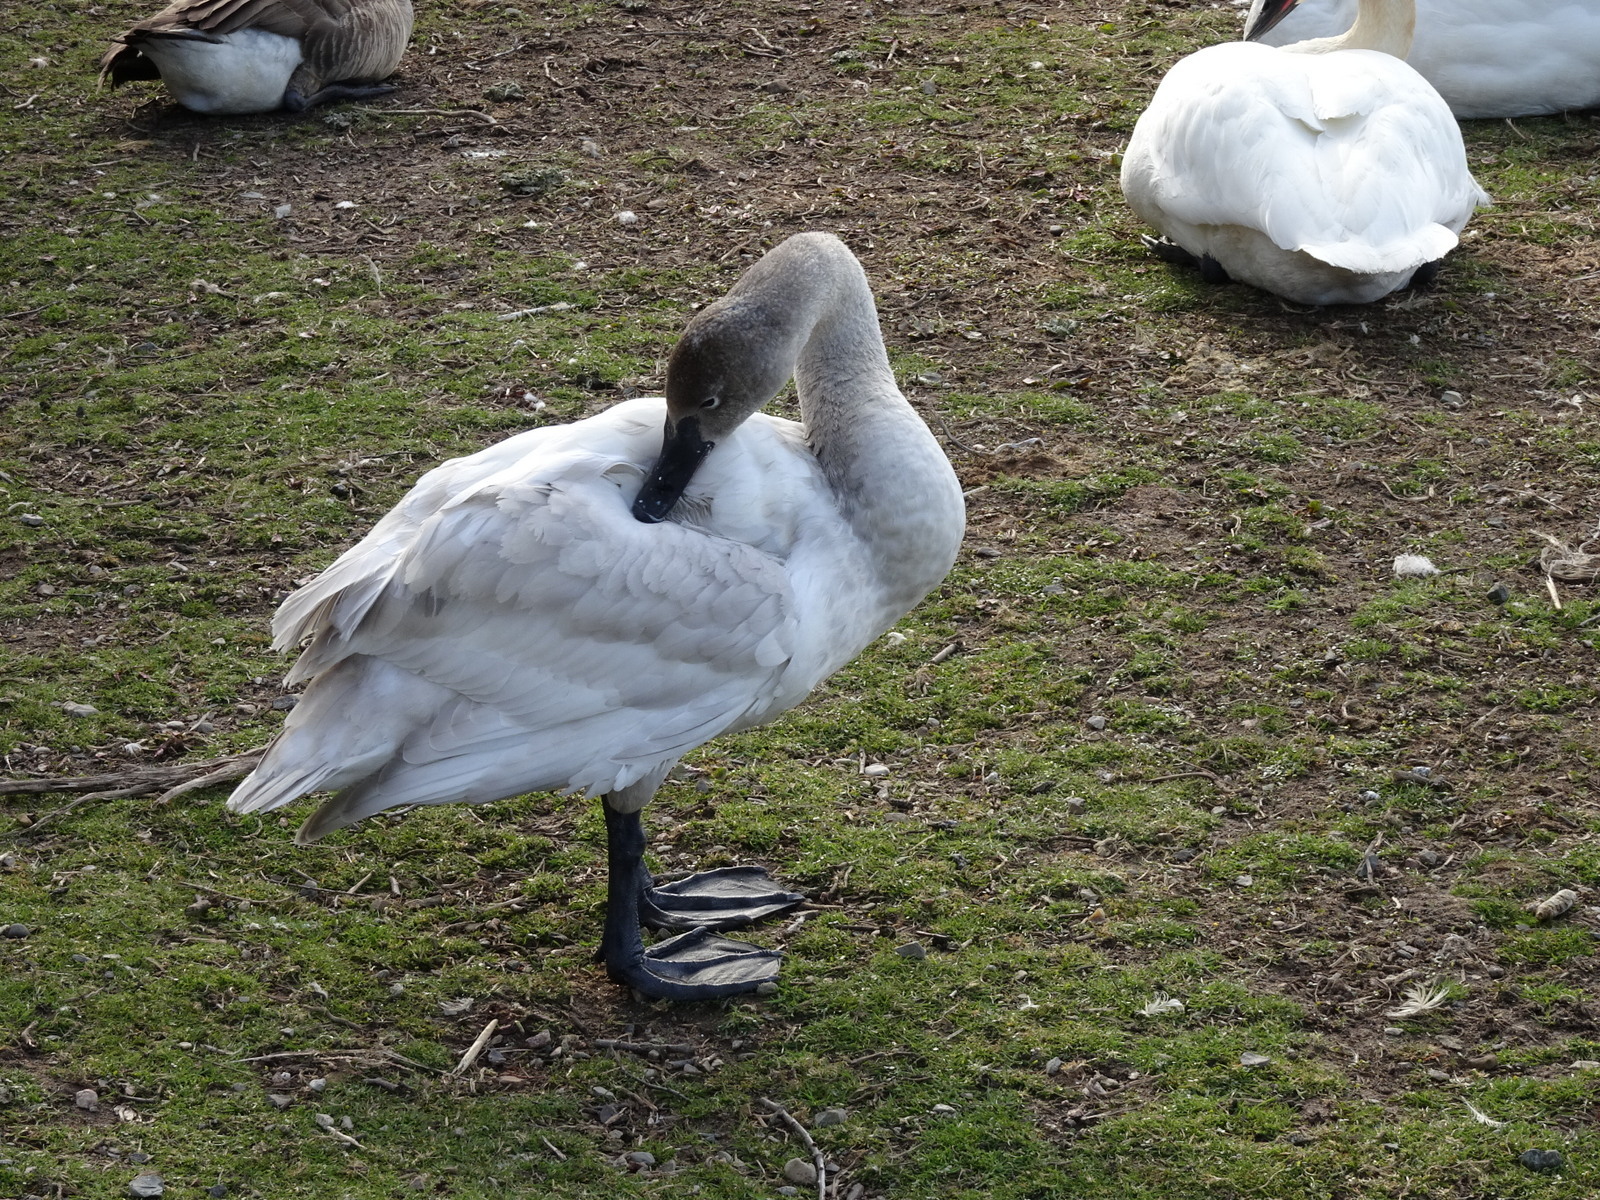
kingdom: Animalia
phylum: Chordata
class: Aves
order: Anseriformes
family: Anatidae
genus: Cygnus
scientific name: Cygnus columbianus
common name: Tundra swan
